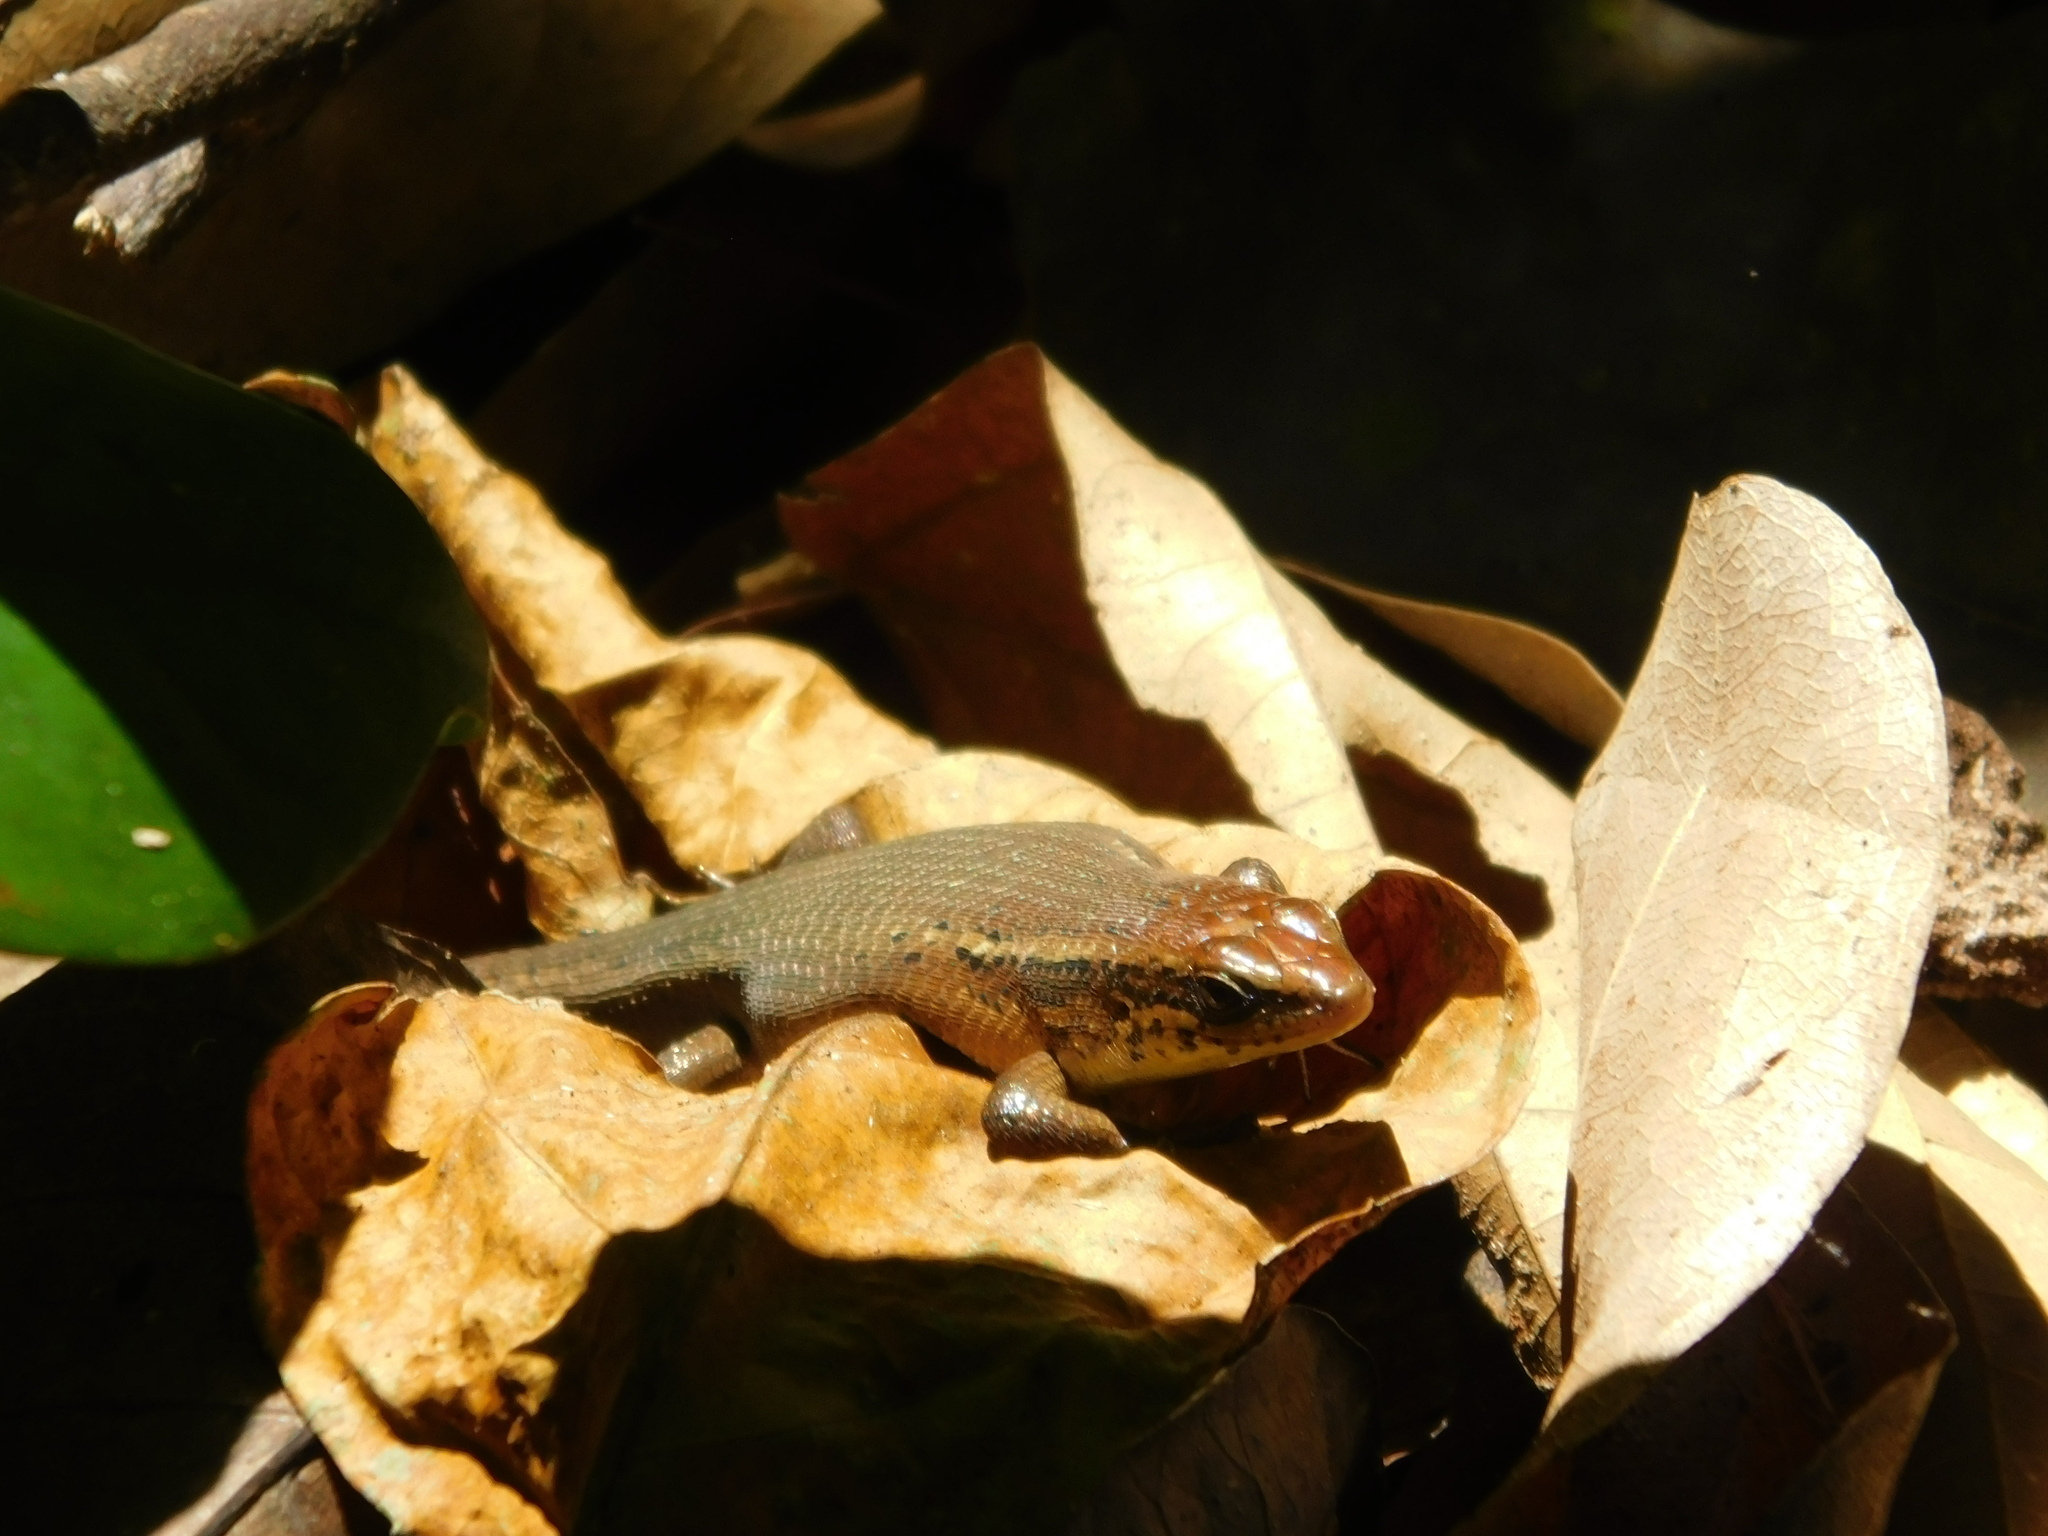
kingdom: Animalia
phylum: Chordata
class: Squamata
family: Scincidae
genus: Eutropis
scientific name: Eutropis rugifera
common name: Rough-scaled sun skink
